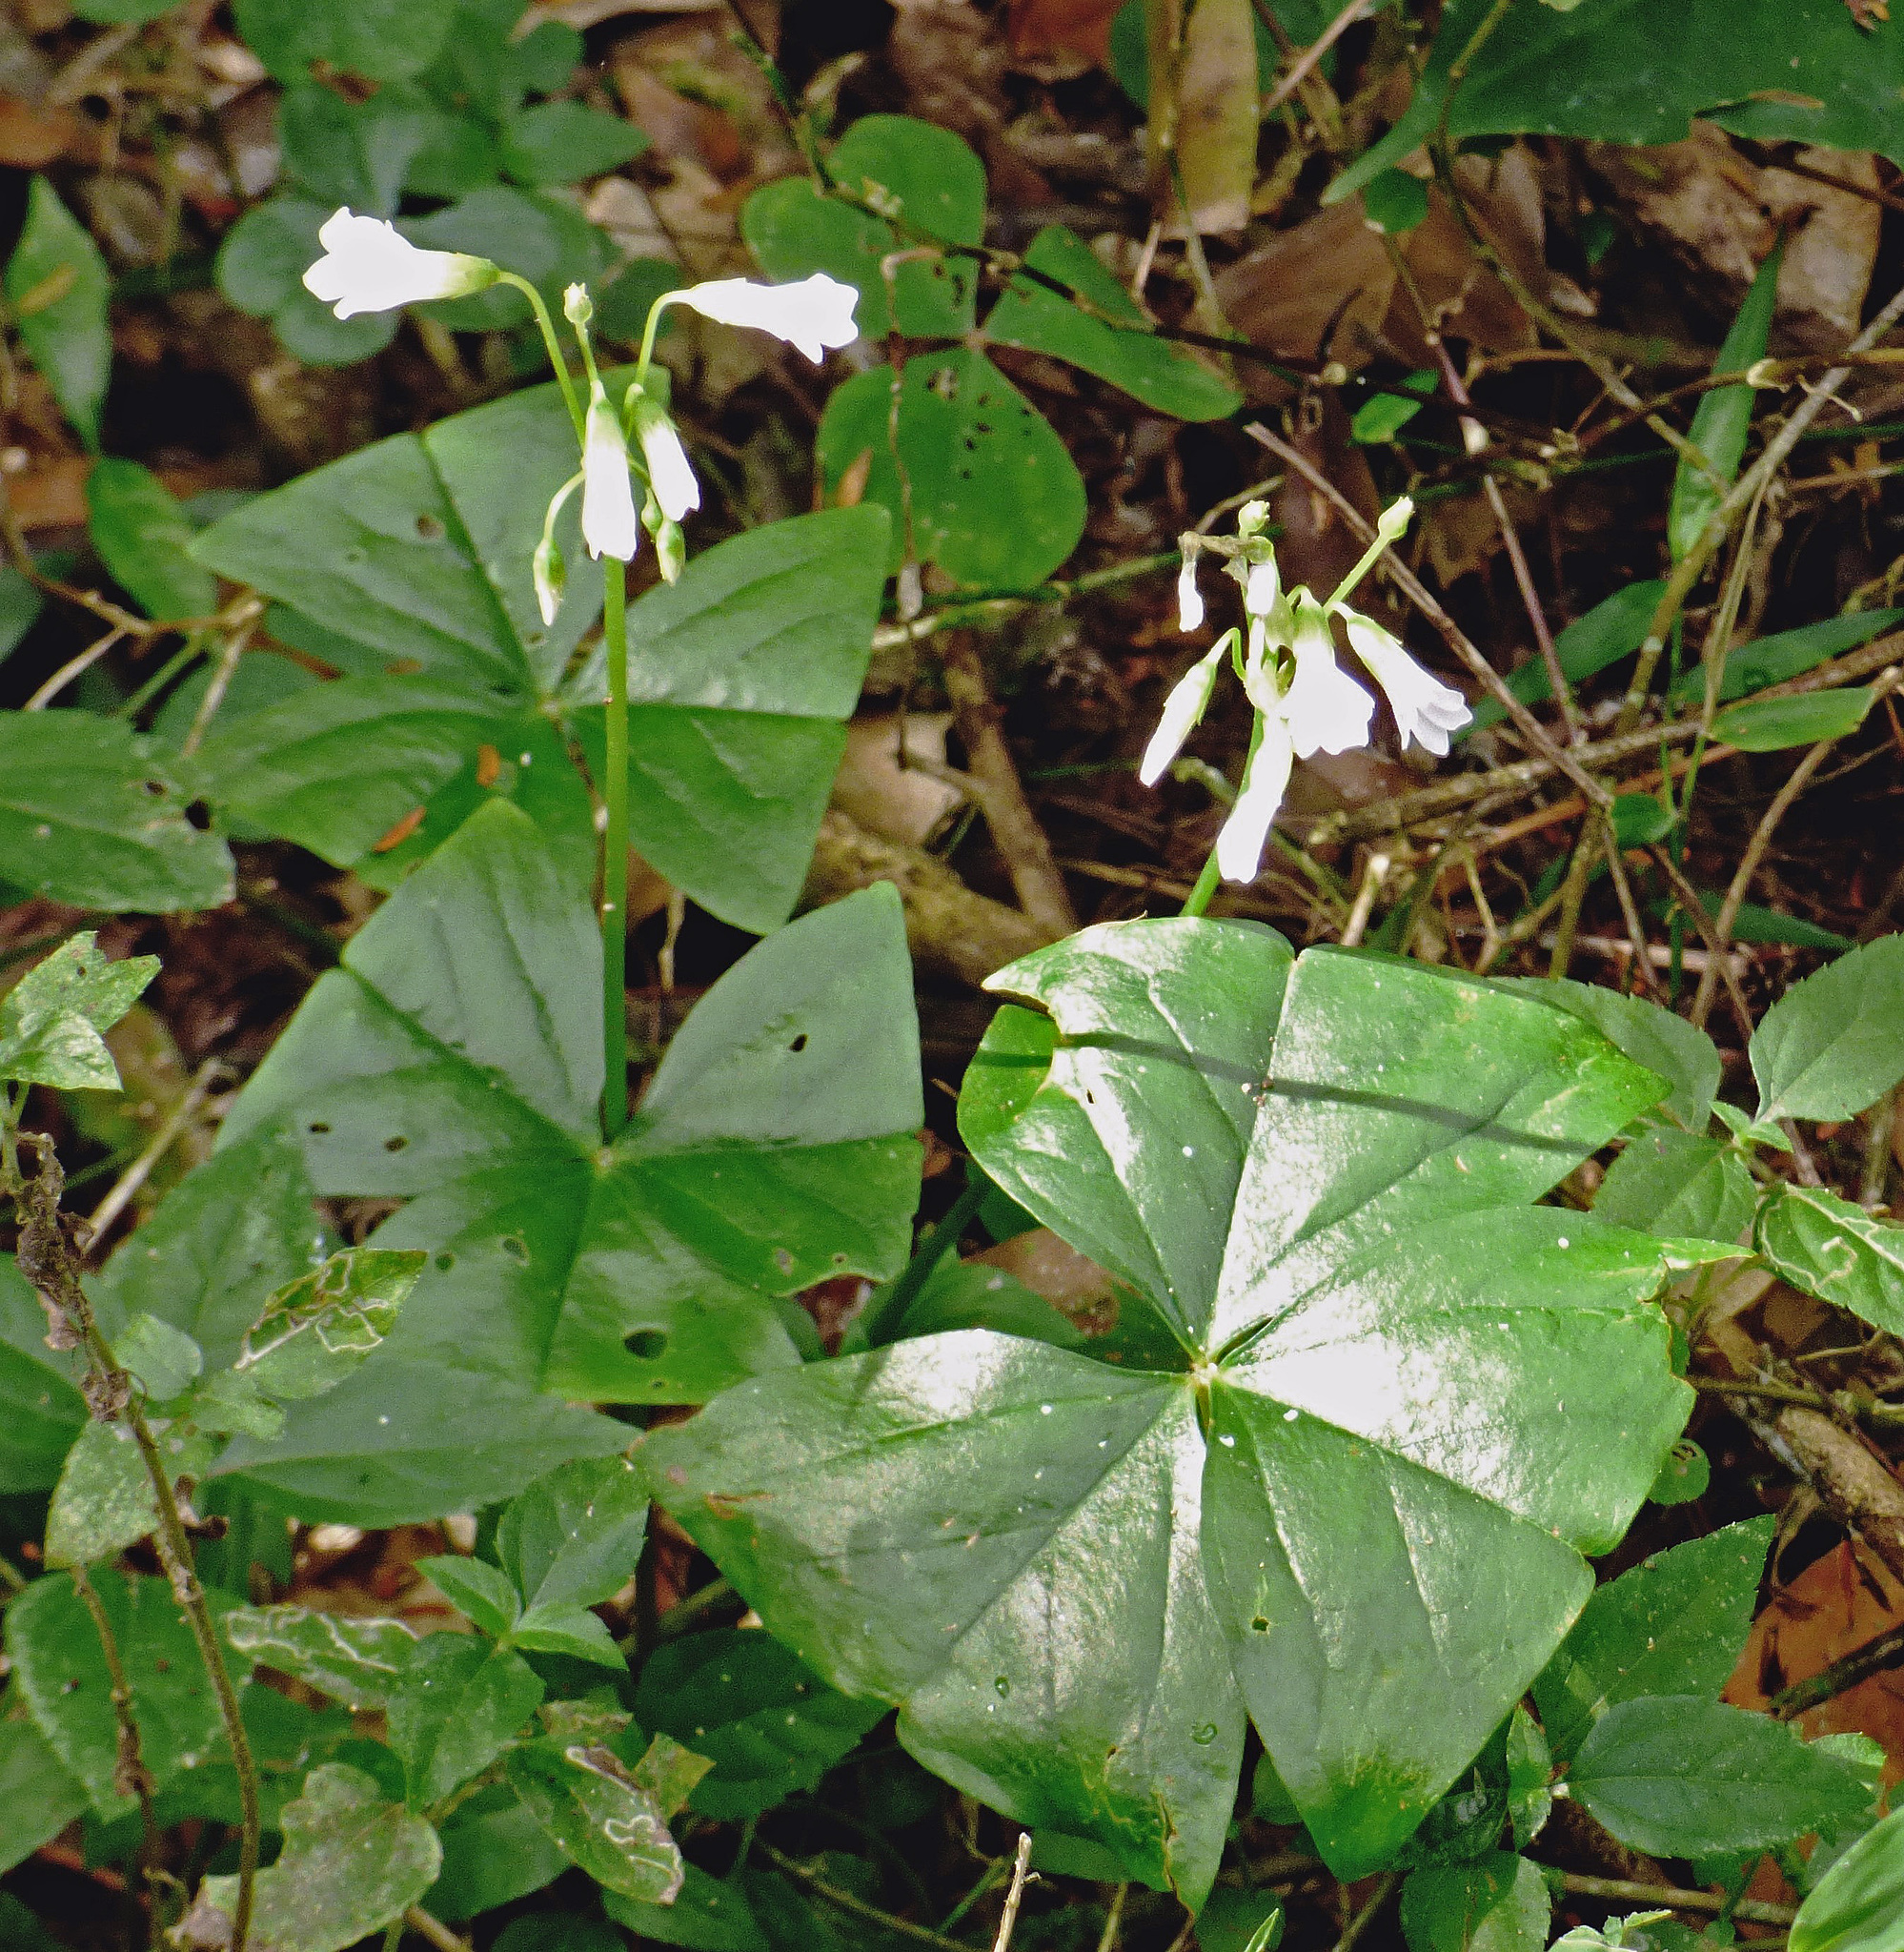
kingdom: Plantae
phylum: Tracheophyta
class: Magnoliopsida
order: Oxalidales
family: Oxalidaceae
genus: Oxalis
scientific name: Oxalis triangularis
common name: Wood sorrel
